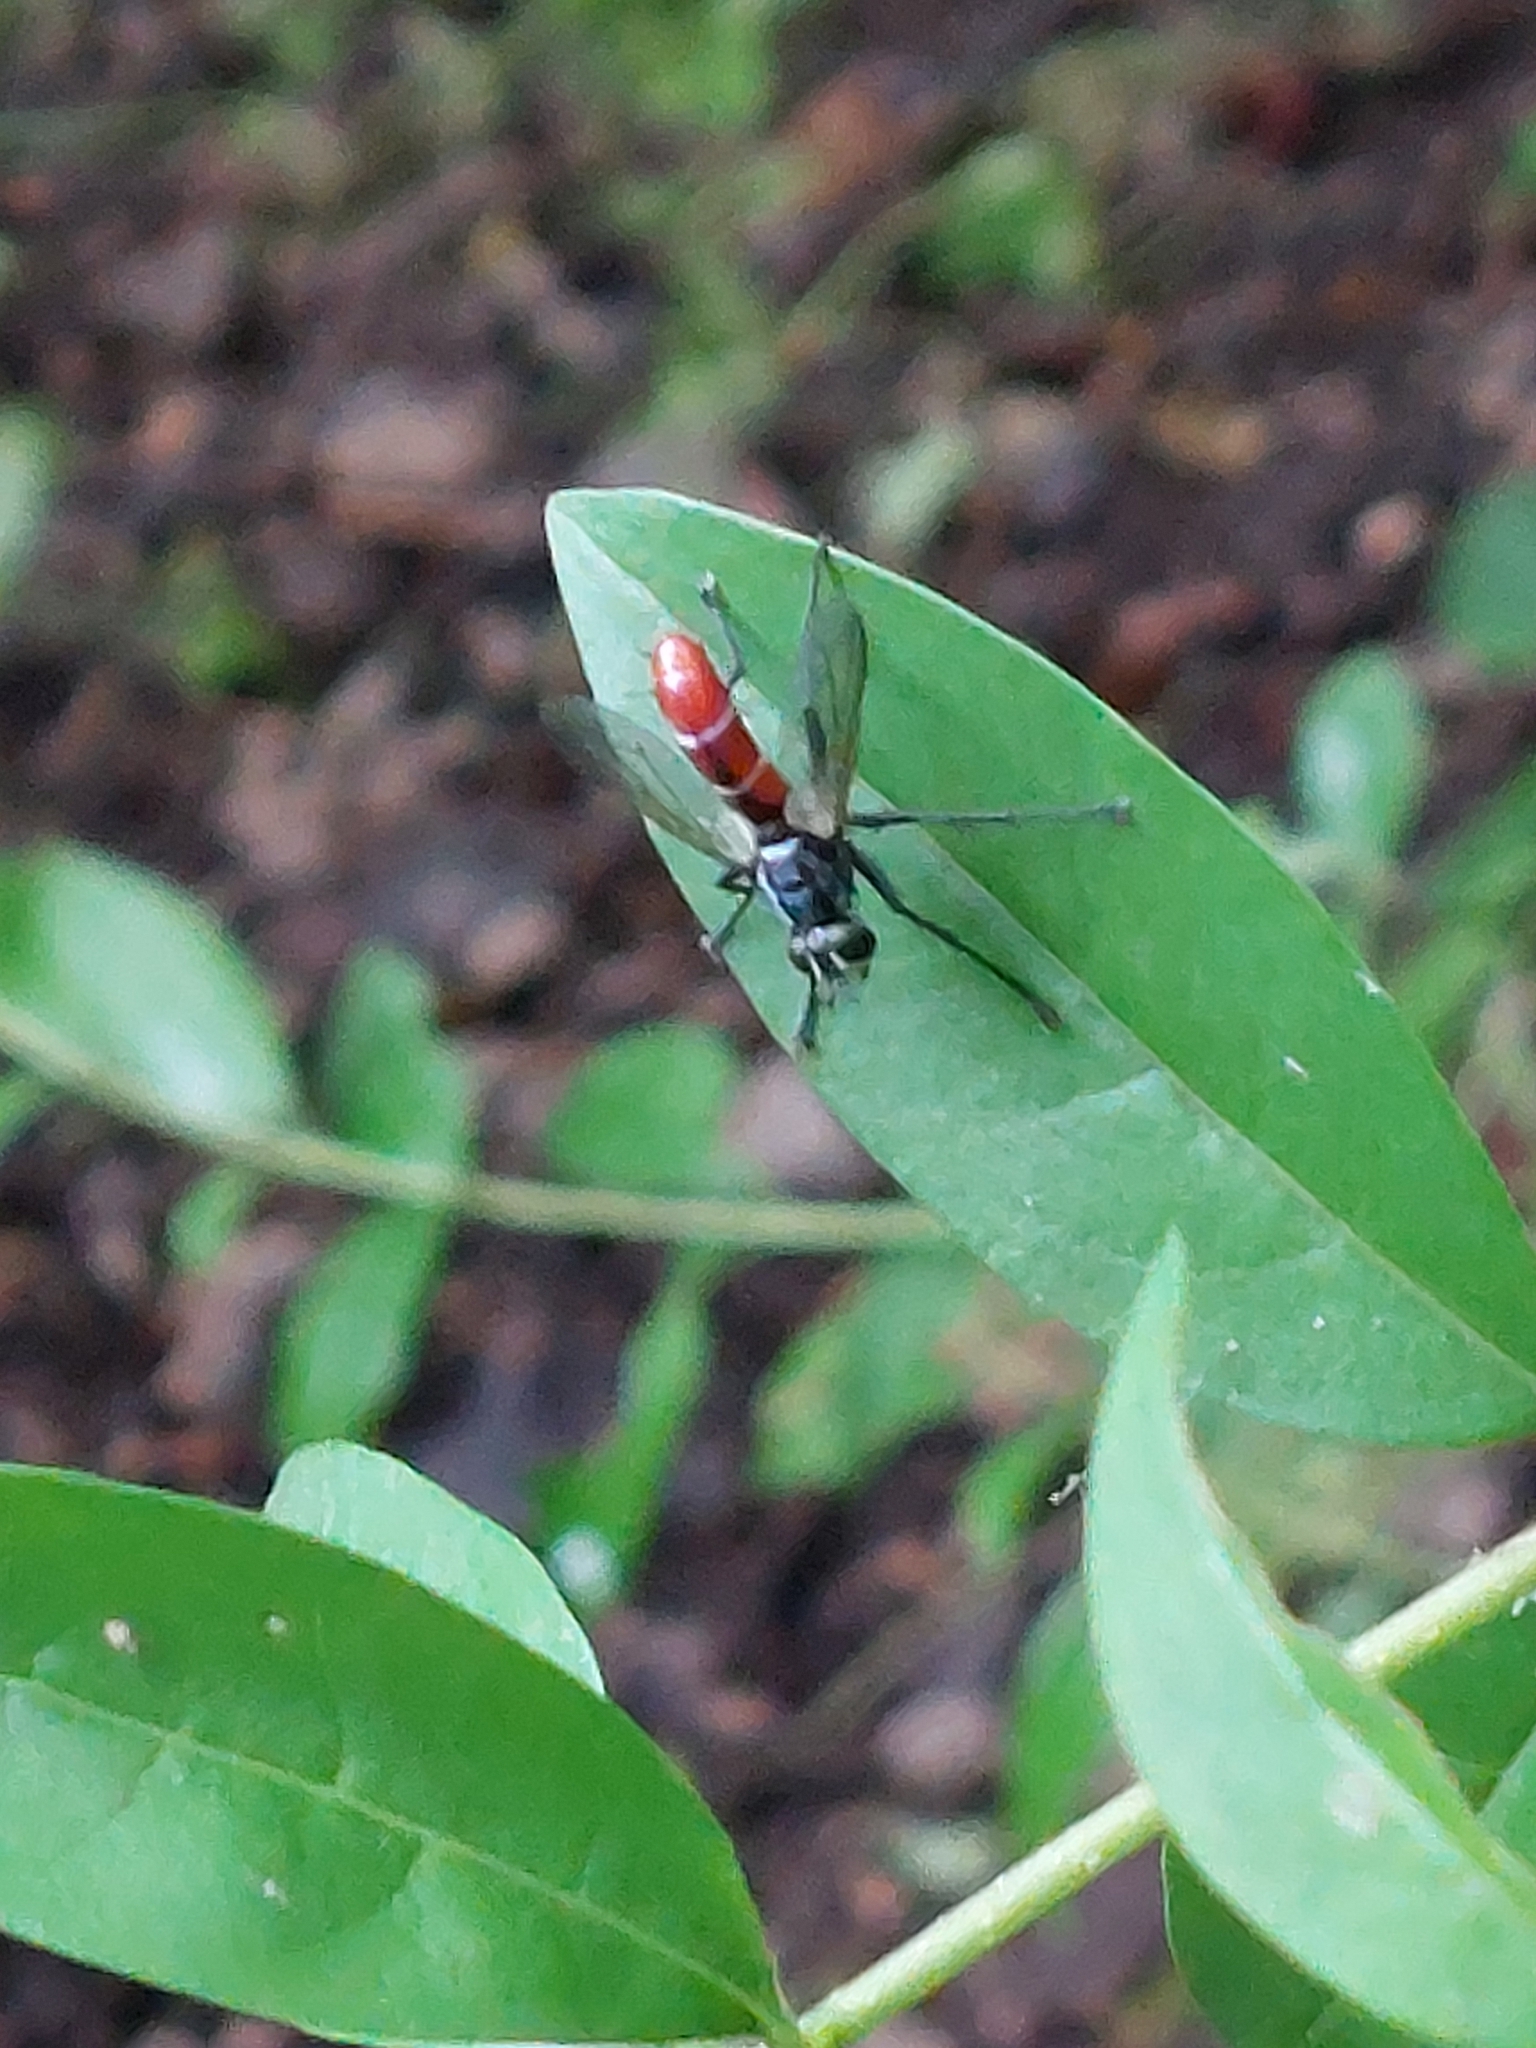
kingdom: Animalia
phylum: Arthropoda
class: Insecta
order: Diptera
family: Tachinidae
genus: Cylindromyia
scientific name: Cylindromyia bicolor
